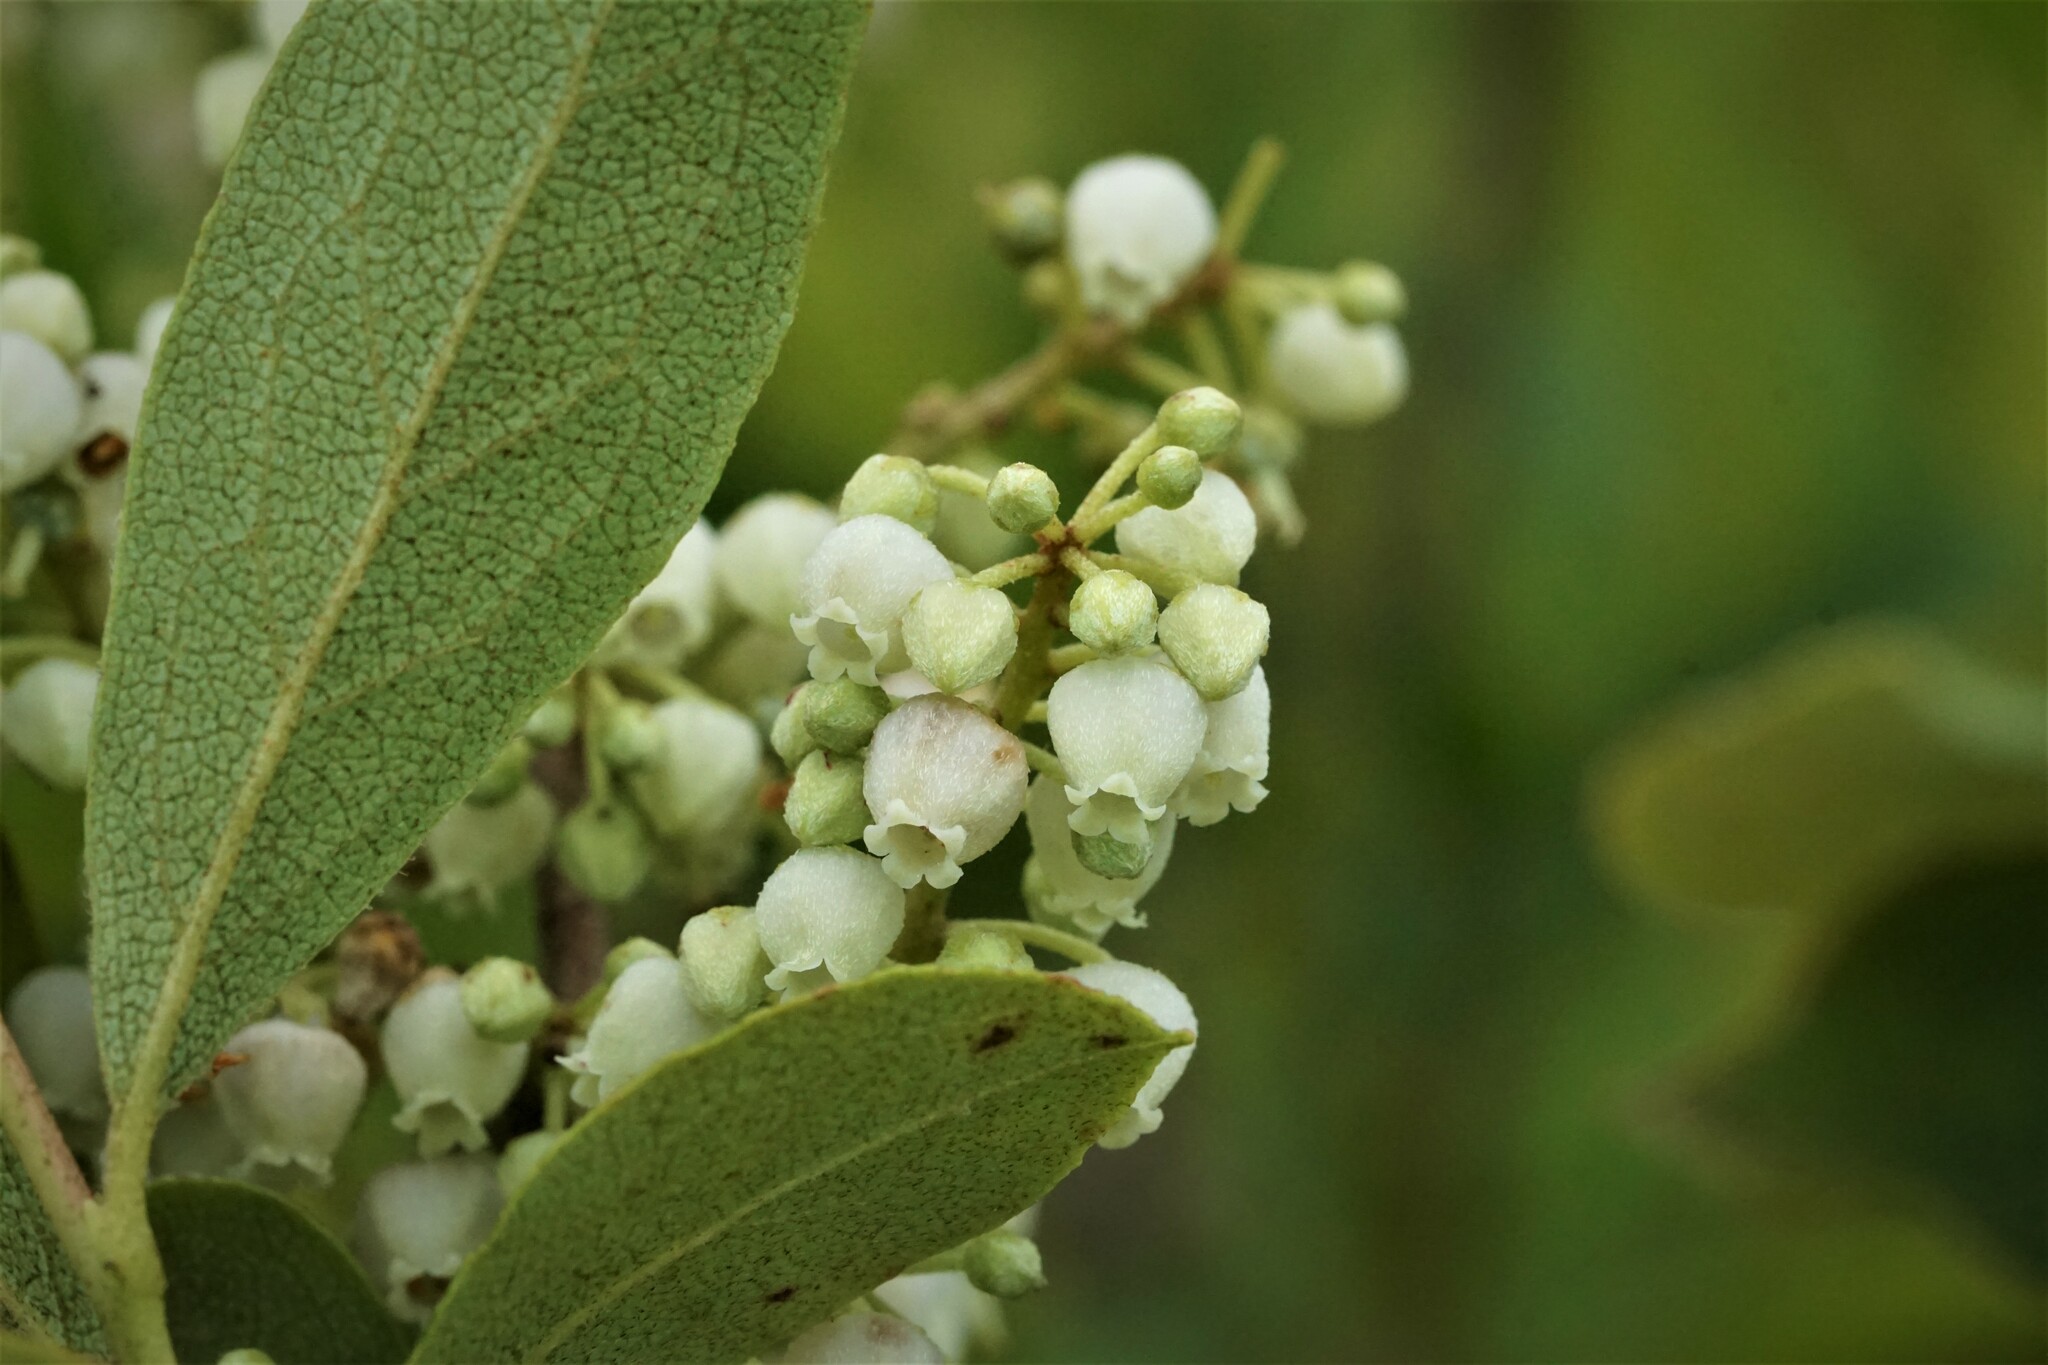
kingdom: Plantae
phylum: Tracheophyta
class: Magnoliopsida
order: Ericales
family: Ericaceae
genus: Lyonia
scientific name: Lyonia ligustrina
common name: Maleberry
